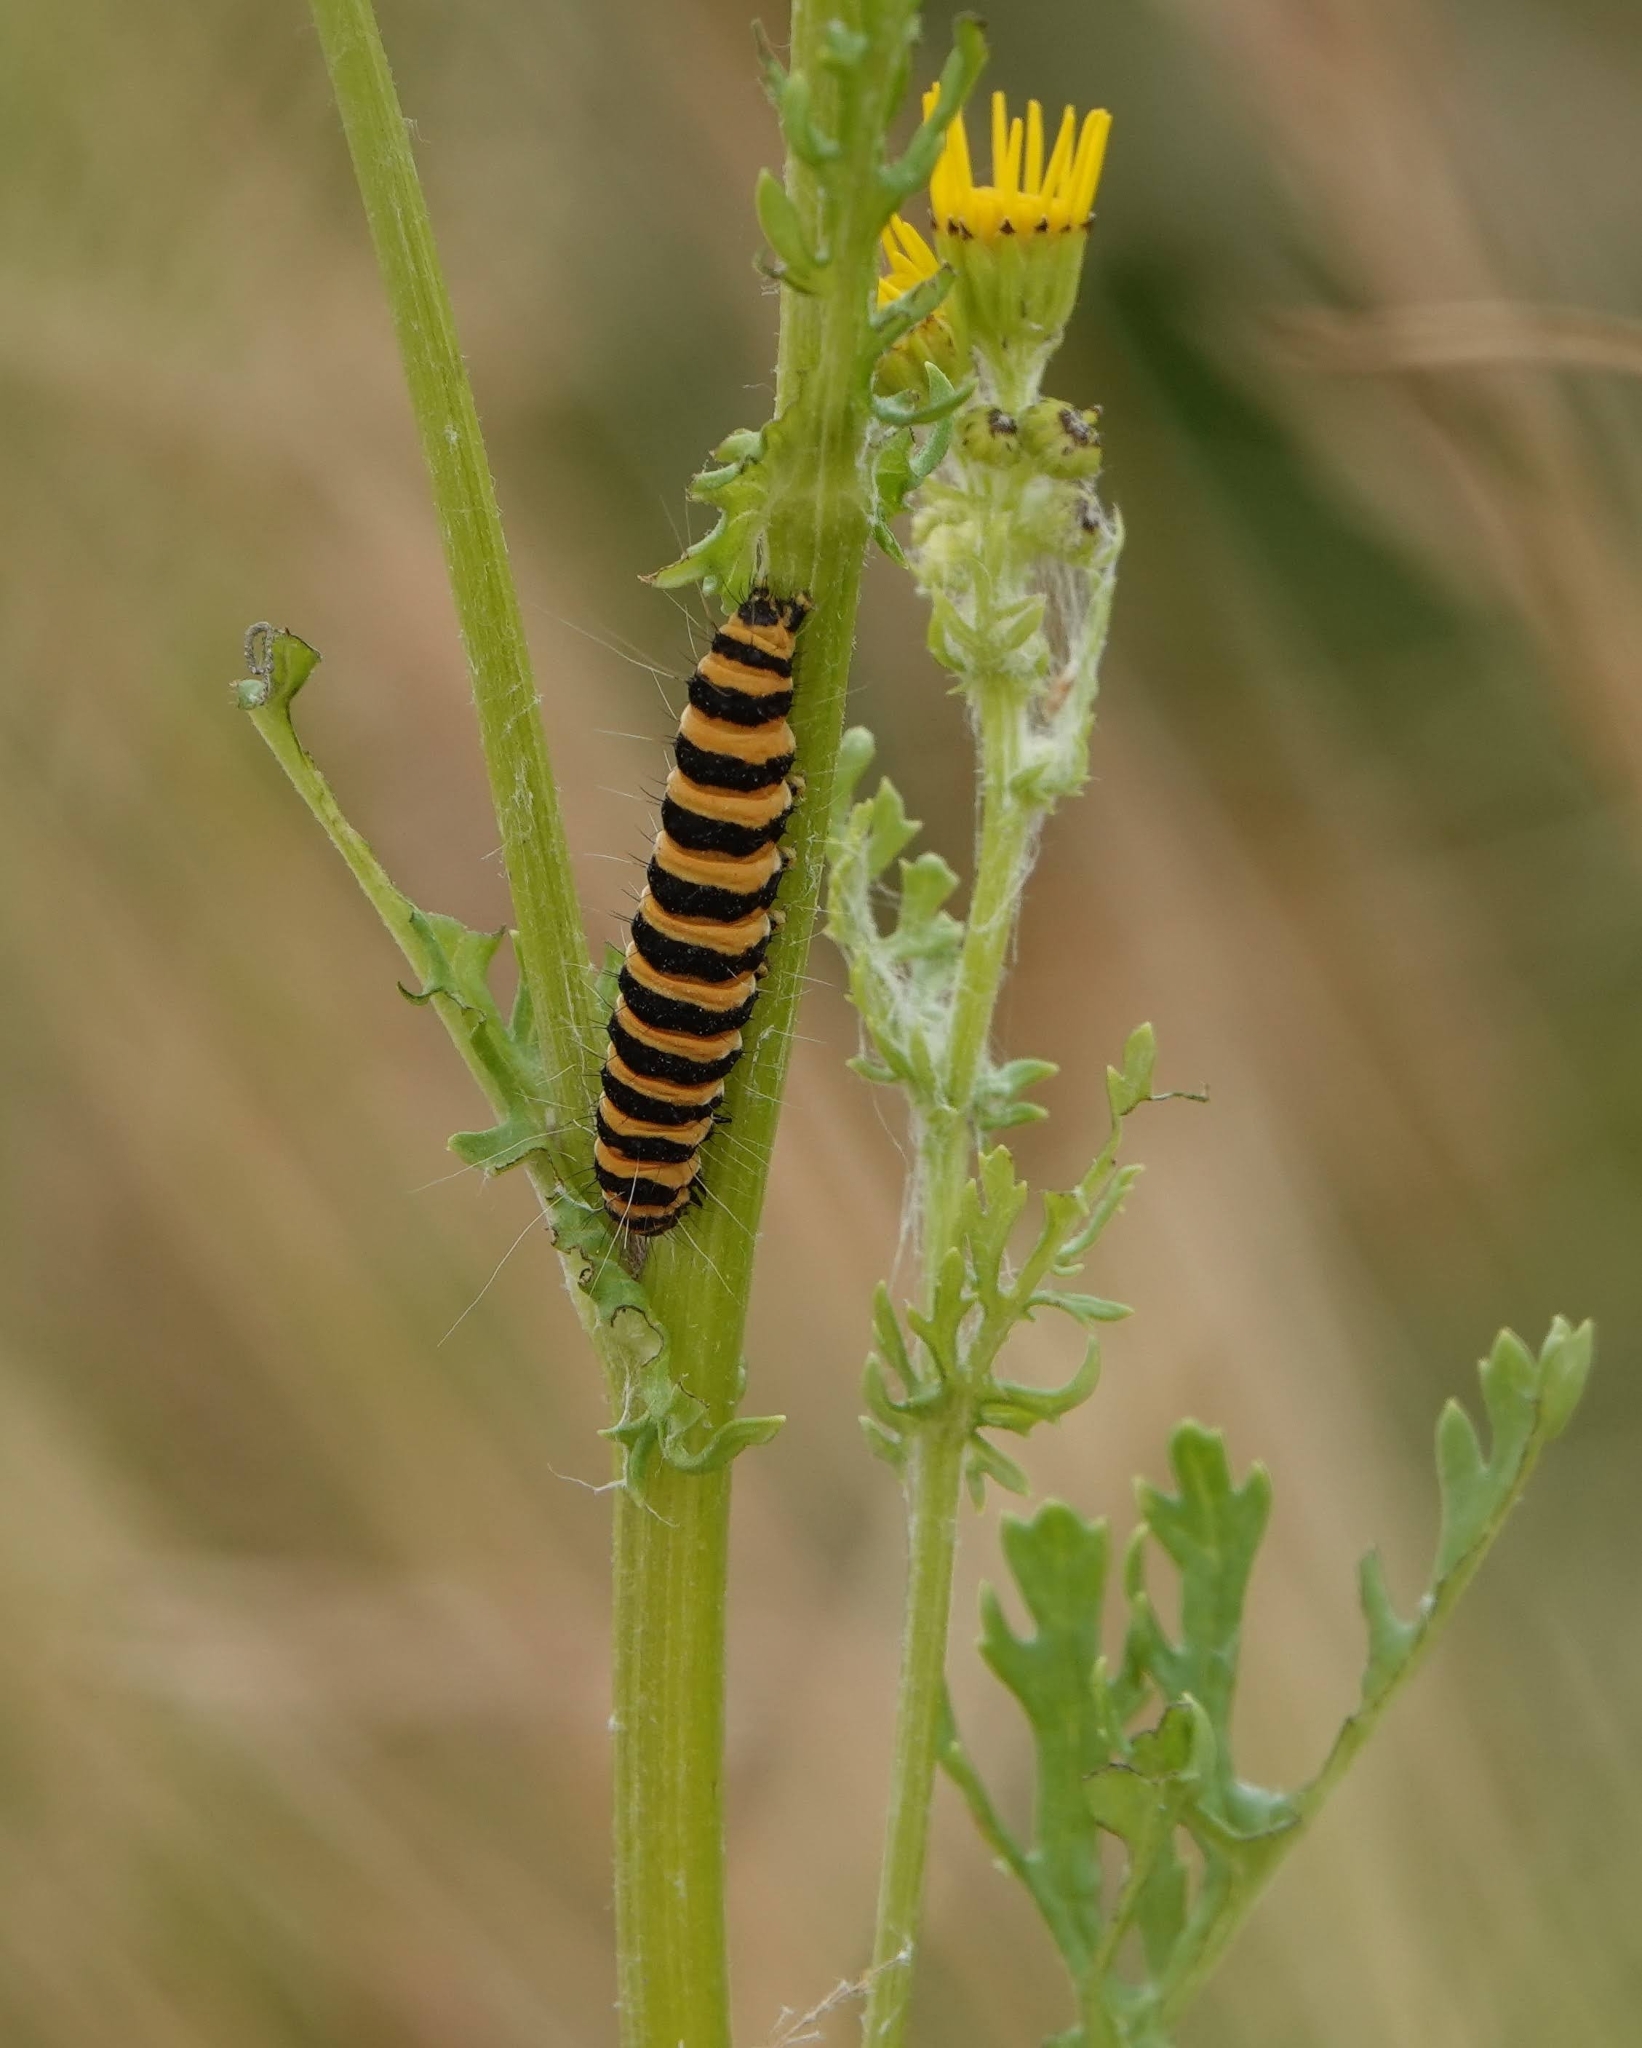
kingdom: Animalia
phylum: Arthropoda
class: Insecta
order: Lepidoptera
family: Erebidae
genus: Tyria
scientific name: Tyria jacobaeae
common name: Cinnabar
